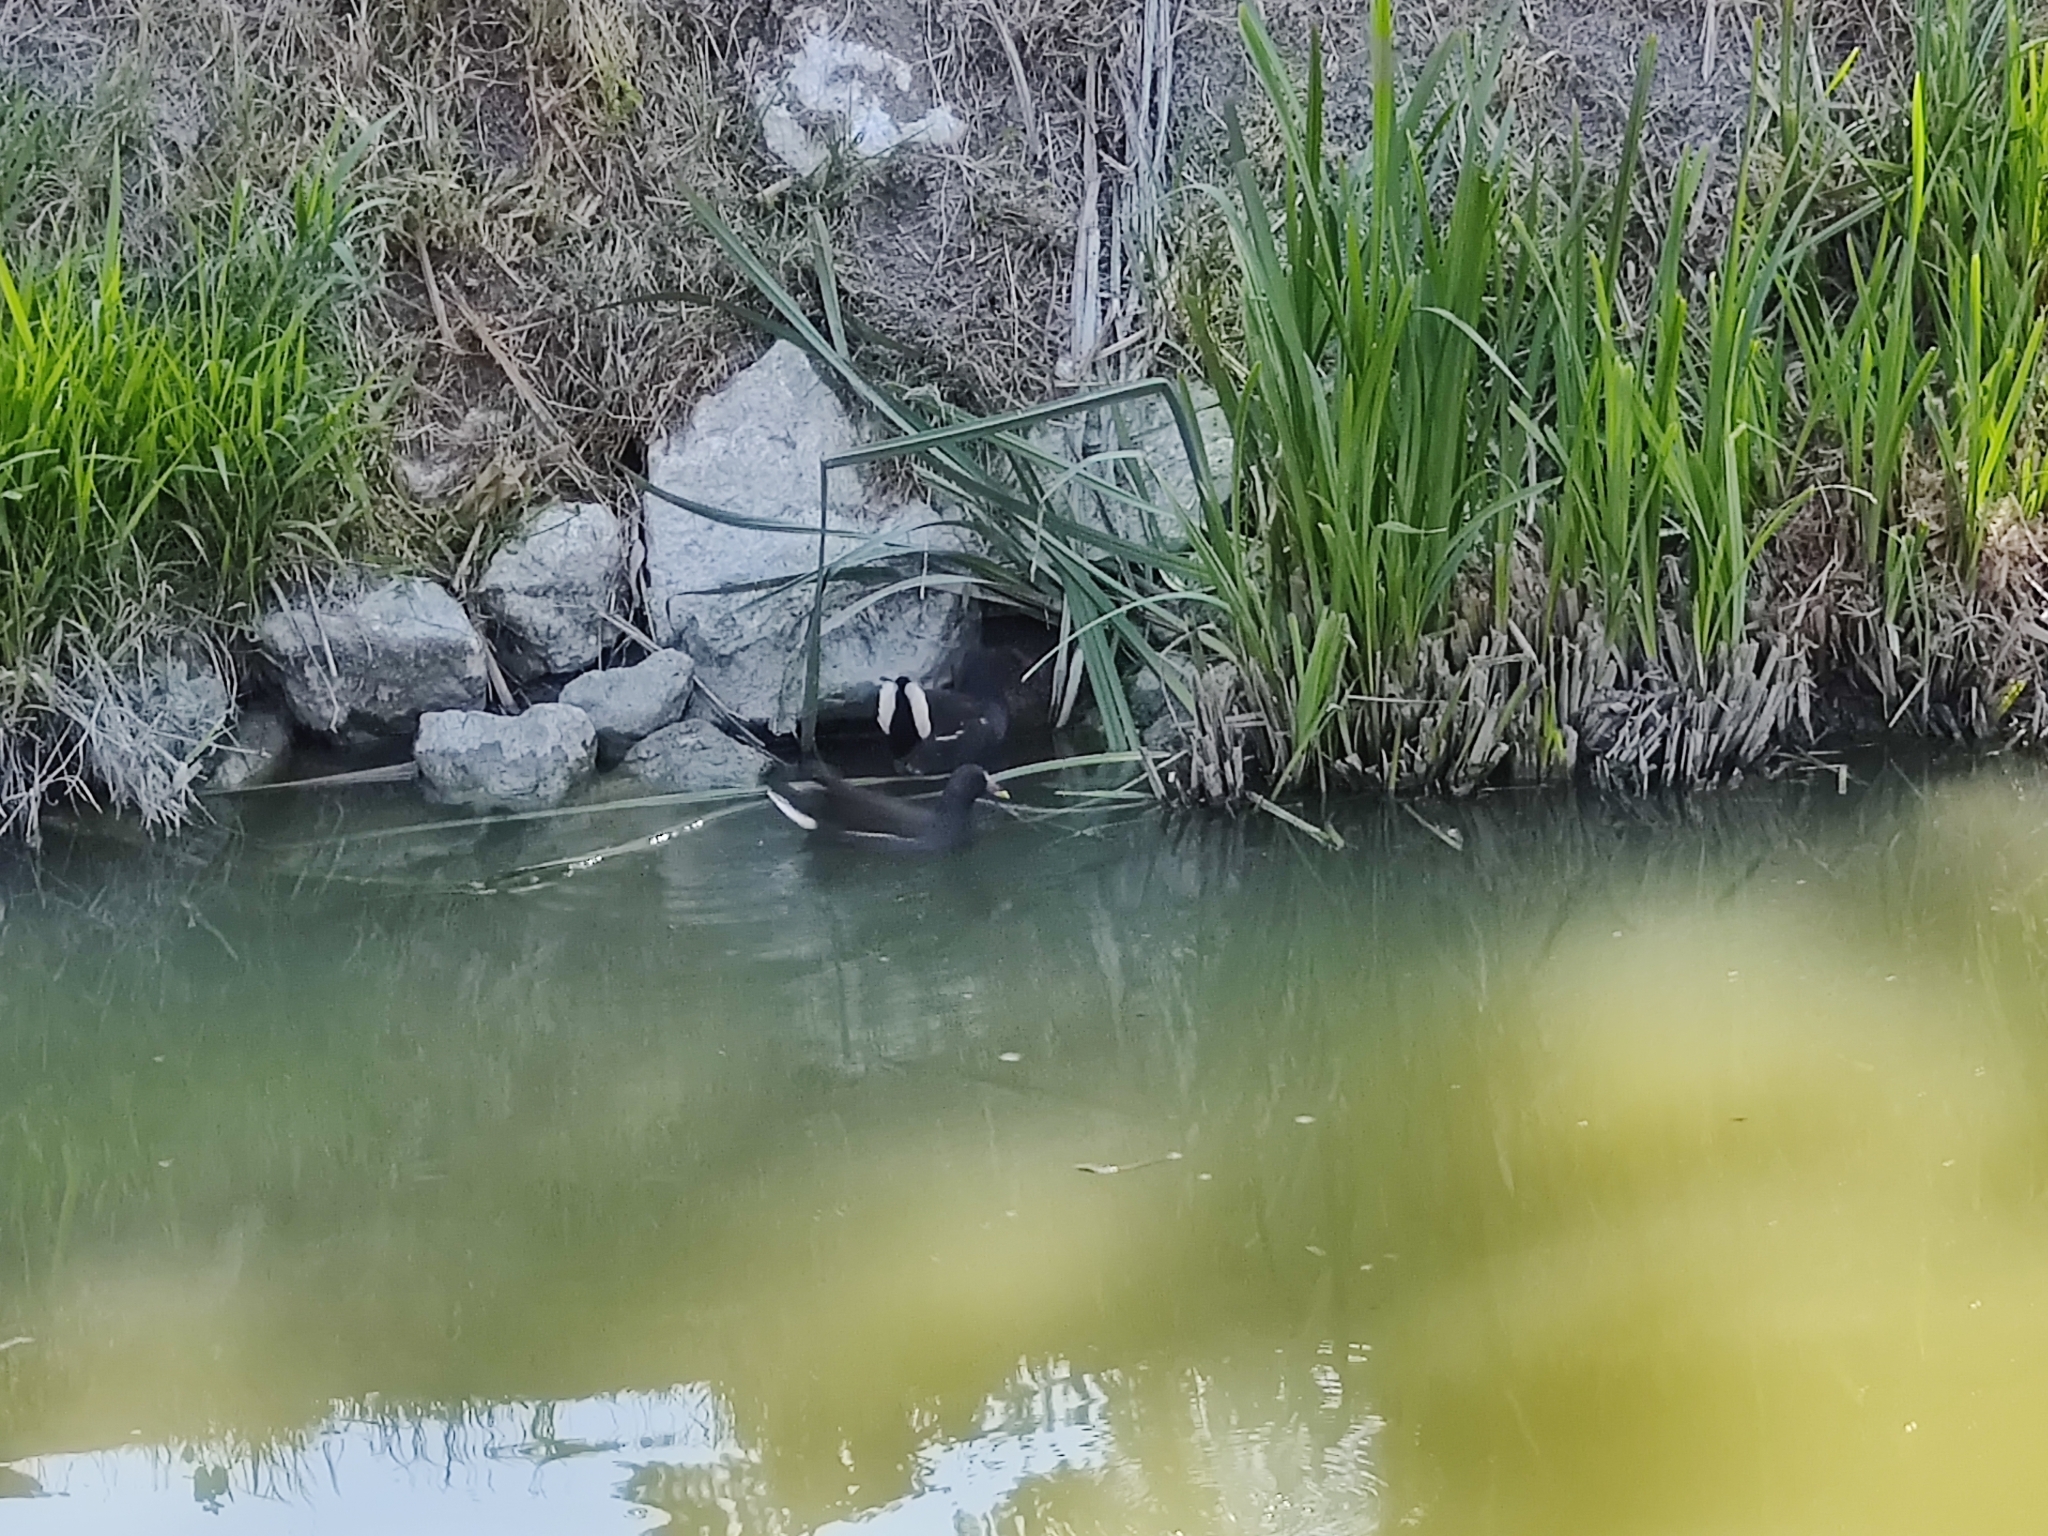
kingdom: Animalia
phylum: Chordata
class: Aves
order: Gruiformes
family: Rallidae
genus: Gallinula
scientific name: Gallinula chloropus
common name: Common moorhen
